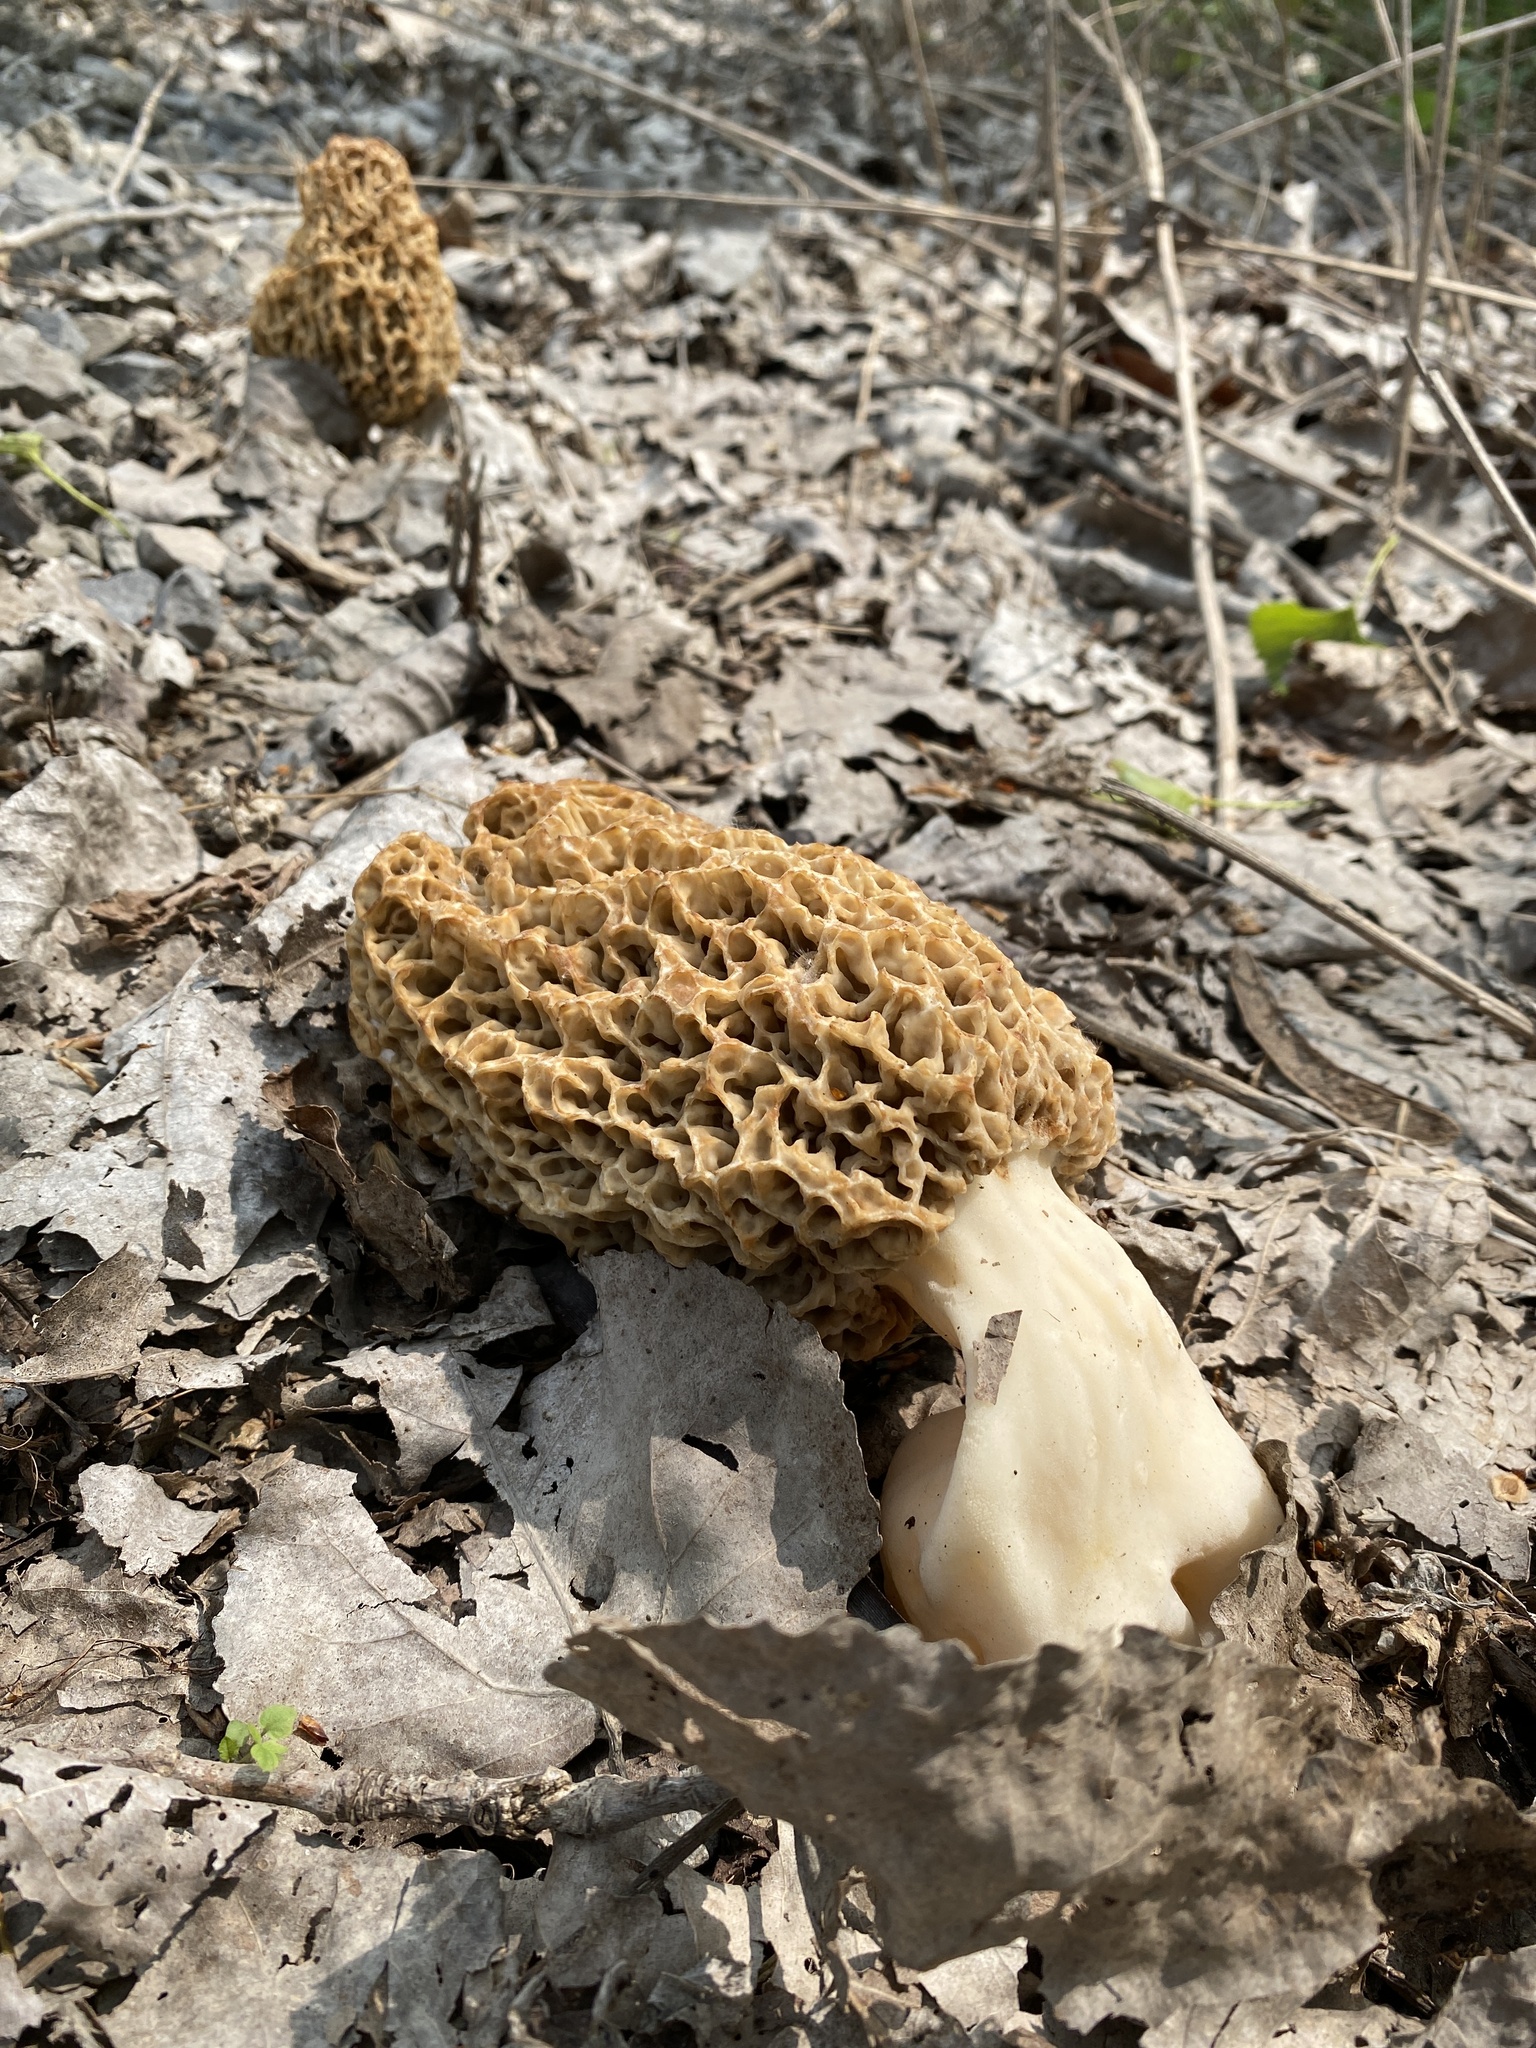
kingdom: Fungi
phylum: Ascomycota
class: Pezizomycetes
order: Pezizales
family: Morchellaceae
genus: Morchella
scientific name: Morchella americana
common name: White morel
